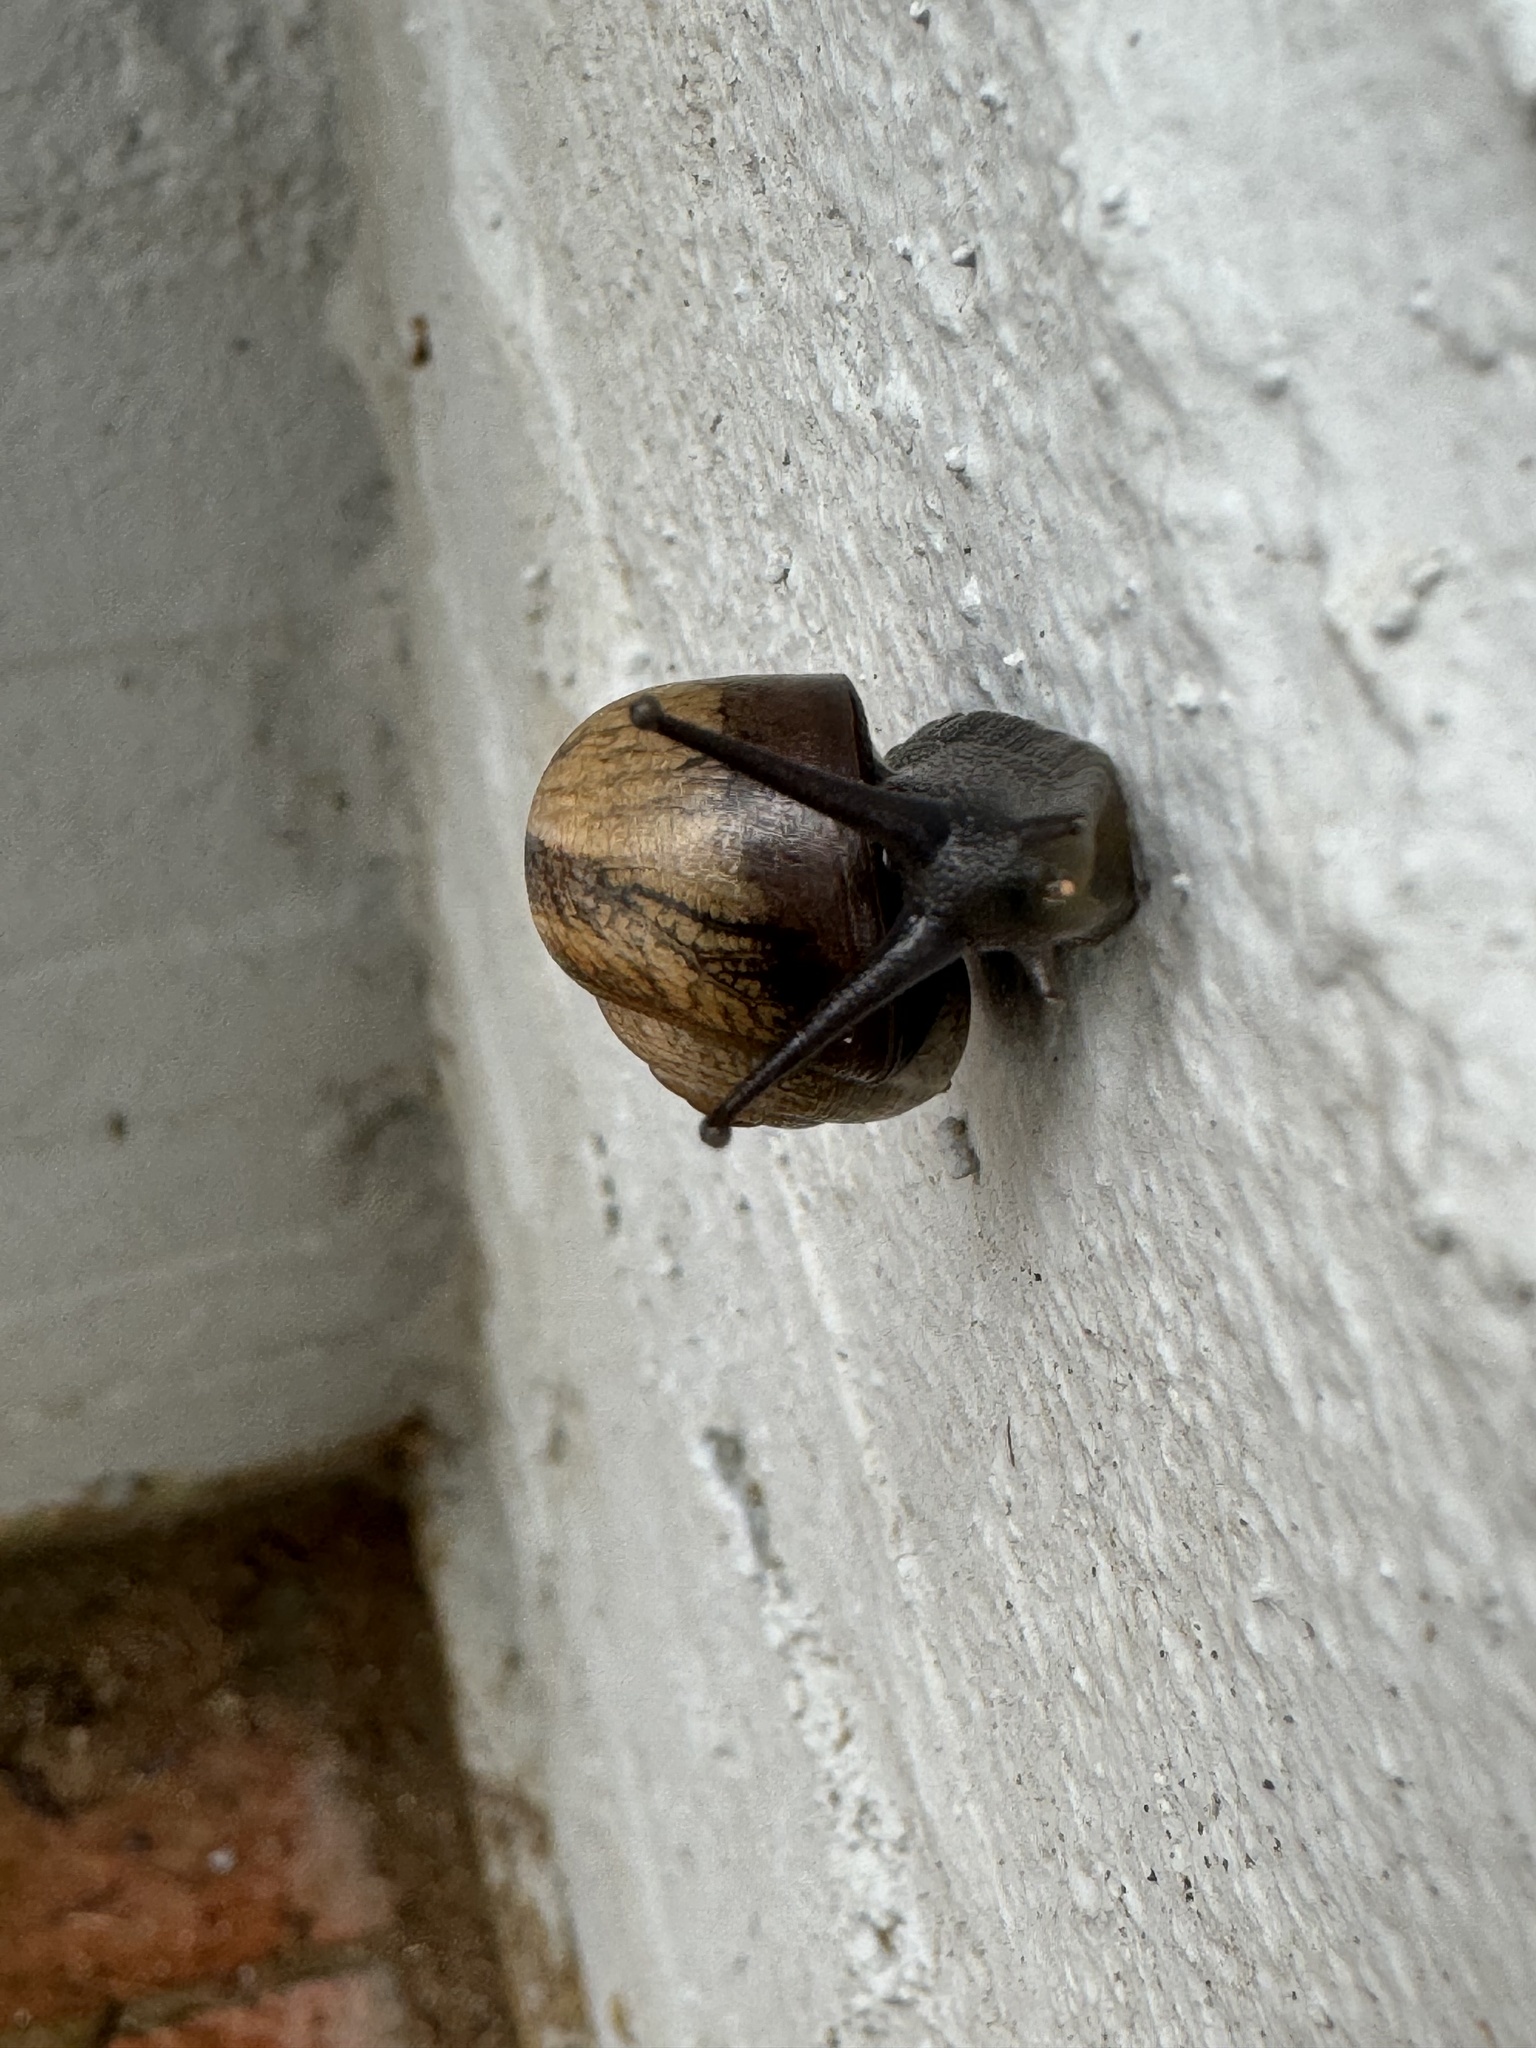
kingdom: Animalia
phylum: Mollusca
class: Gastropoda
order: Stylommatophora
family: Helicidae
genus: Otala
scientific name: Otala lactea
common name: Milk snail
